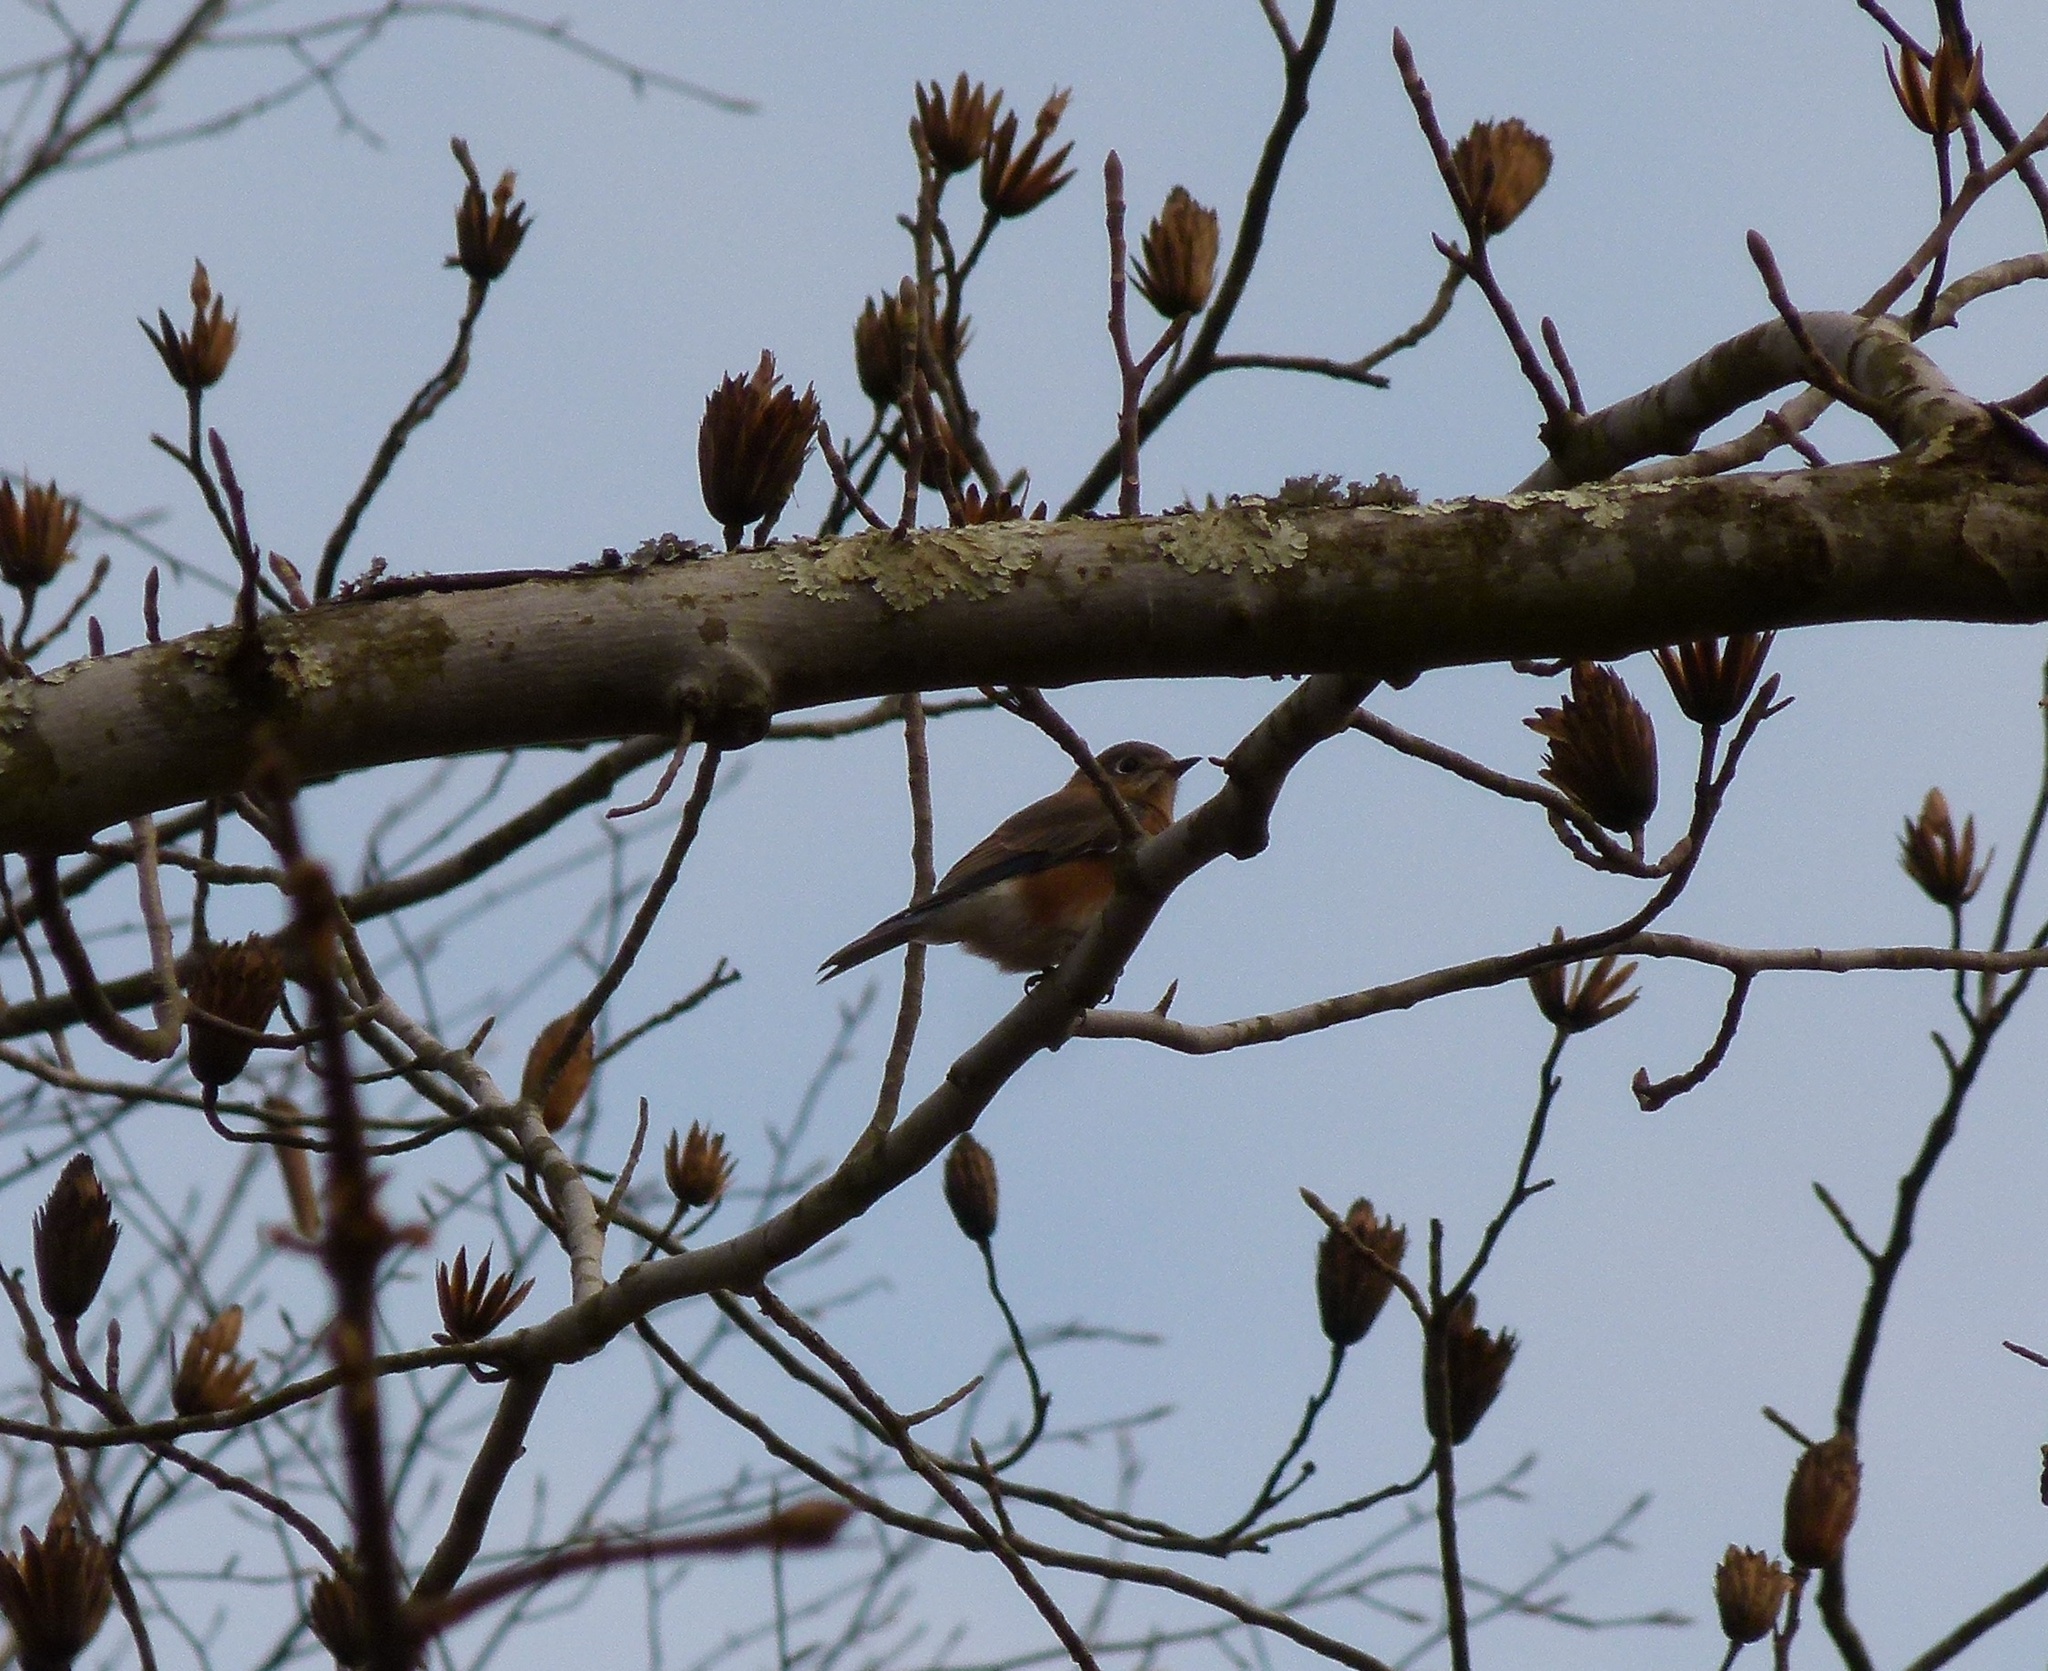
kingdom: Animalia
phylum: Chordata
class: Aves
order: Passeriformes
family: Turdidae
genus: Sialia
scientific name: Sialia sialis
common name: Eastern bluebird
